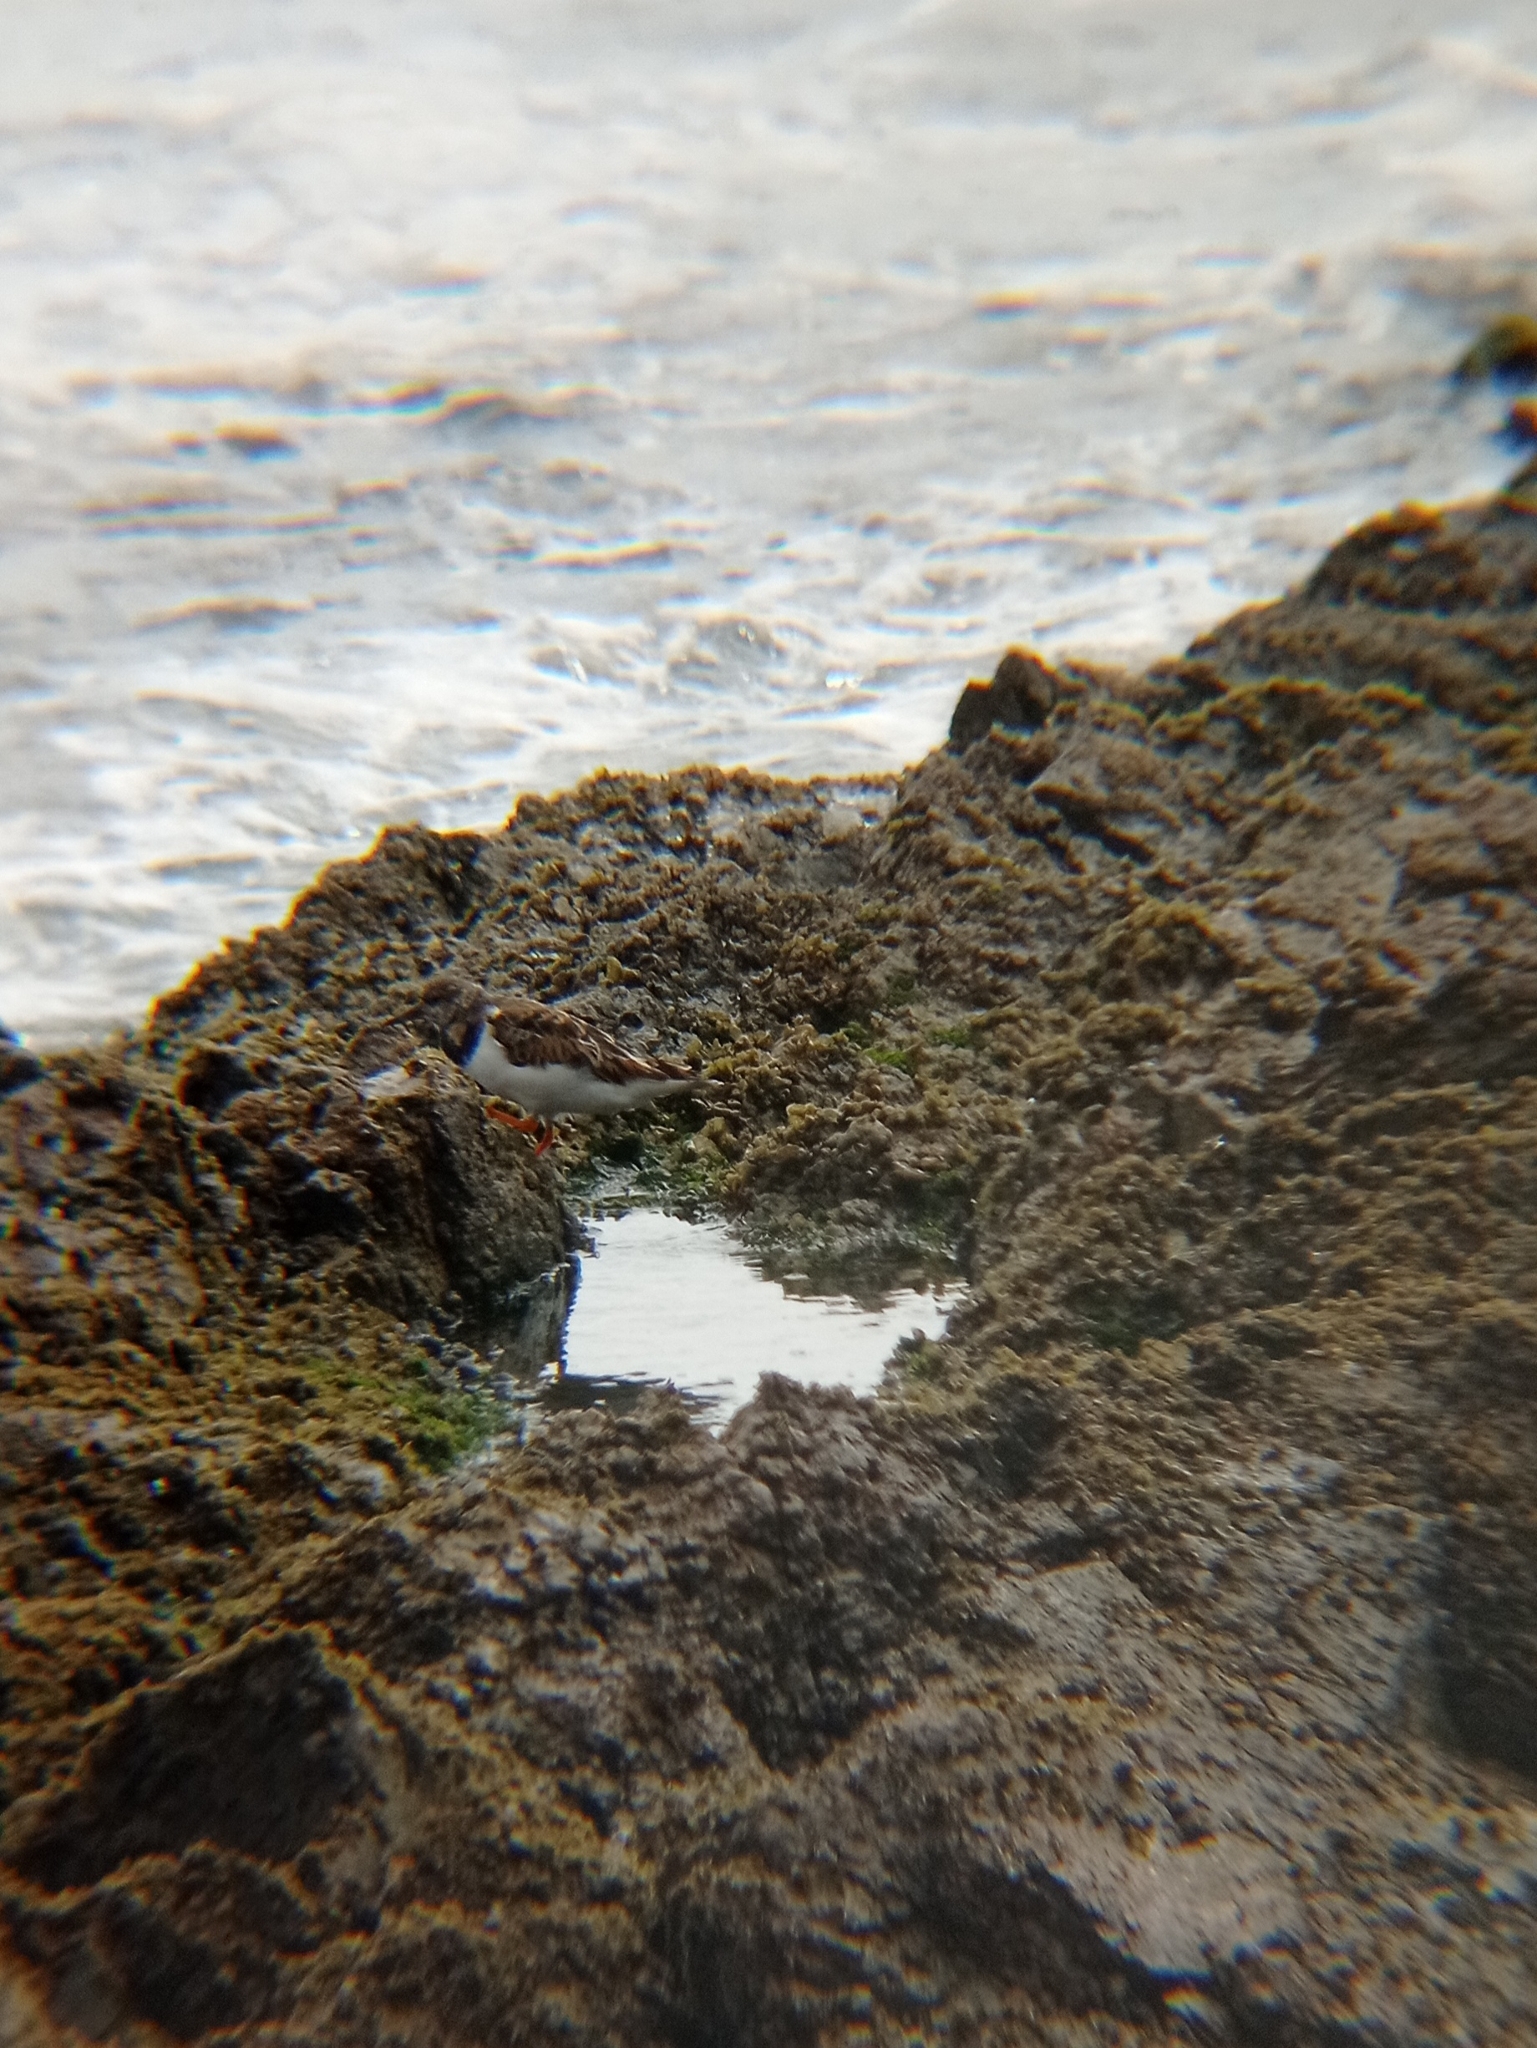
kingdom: Animalia
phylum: Chordata
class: Aves
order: Charadriiformes
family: Scolopacidae
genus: Arenaria
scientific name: Arenaria interpres
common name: Ruddy turnstone
